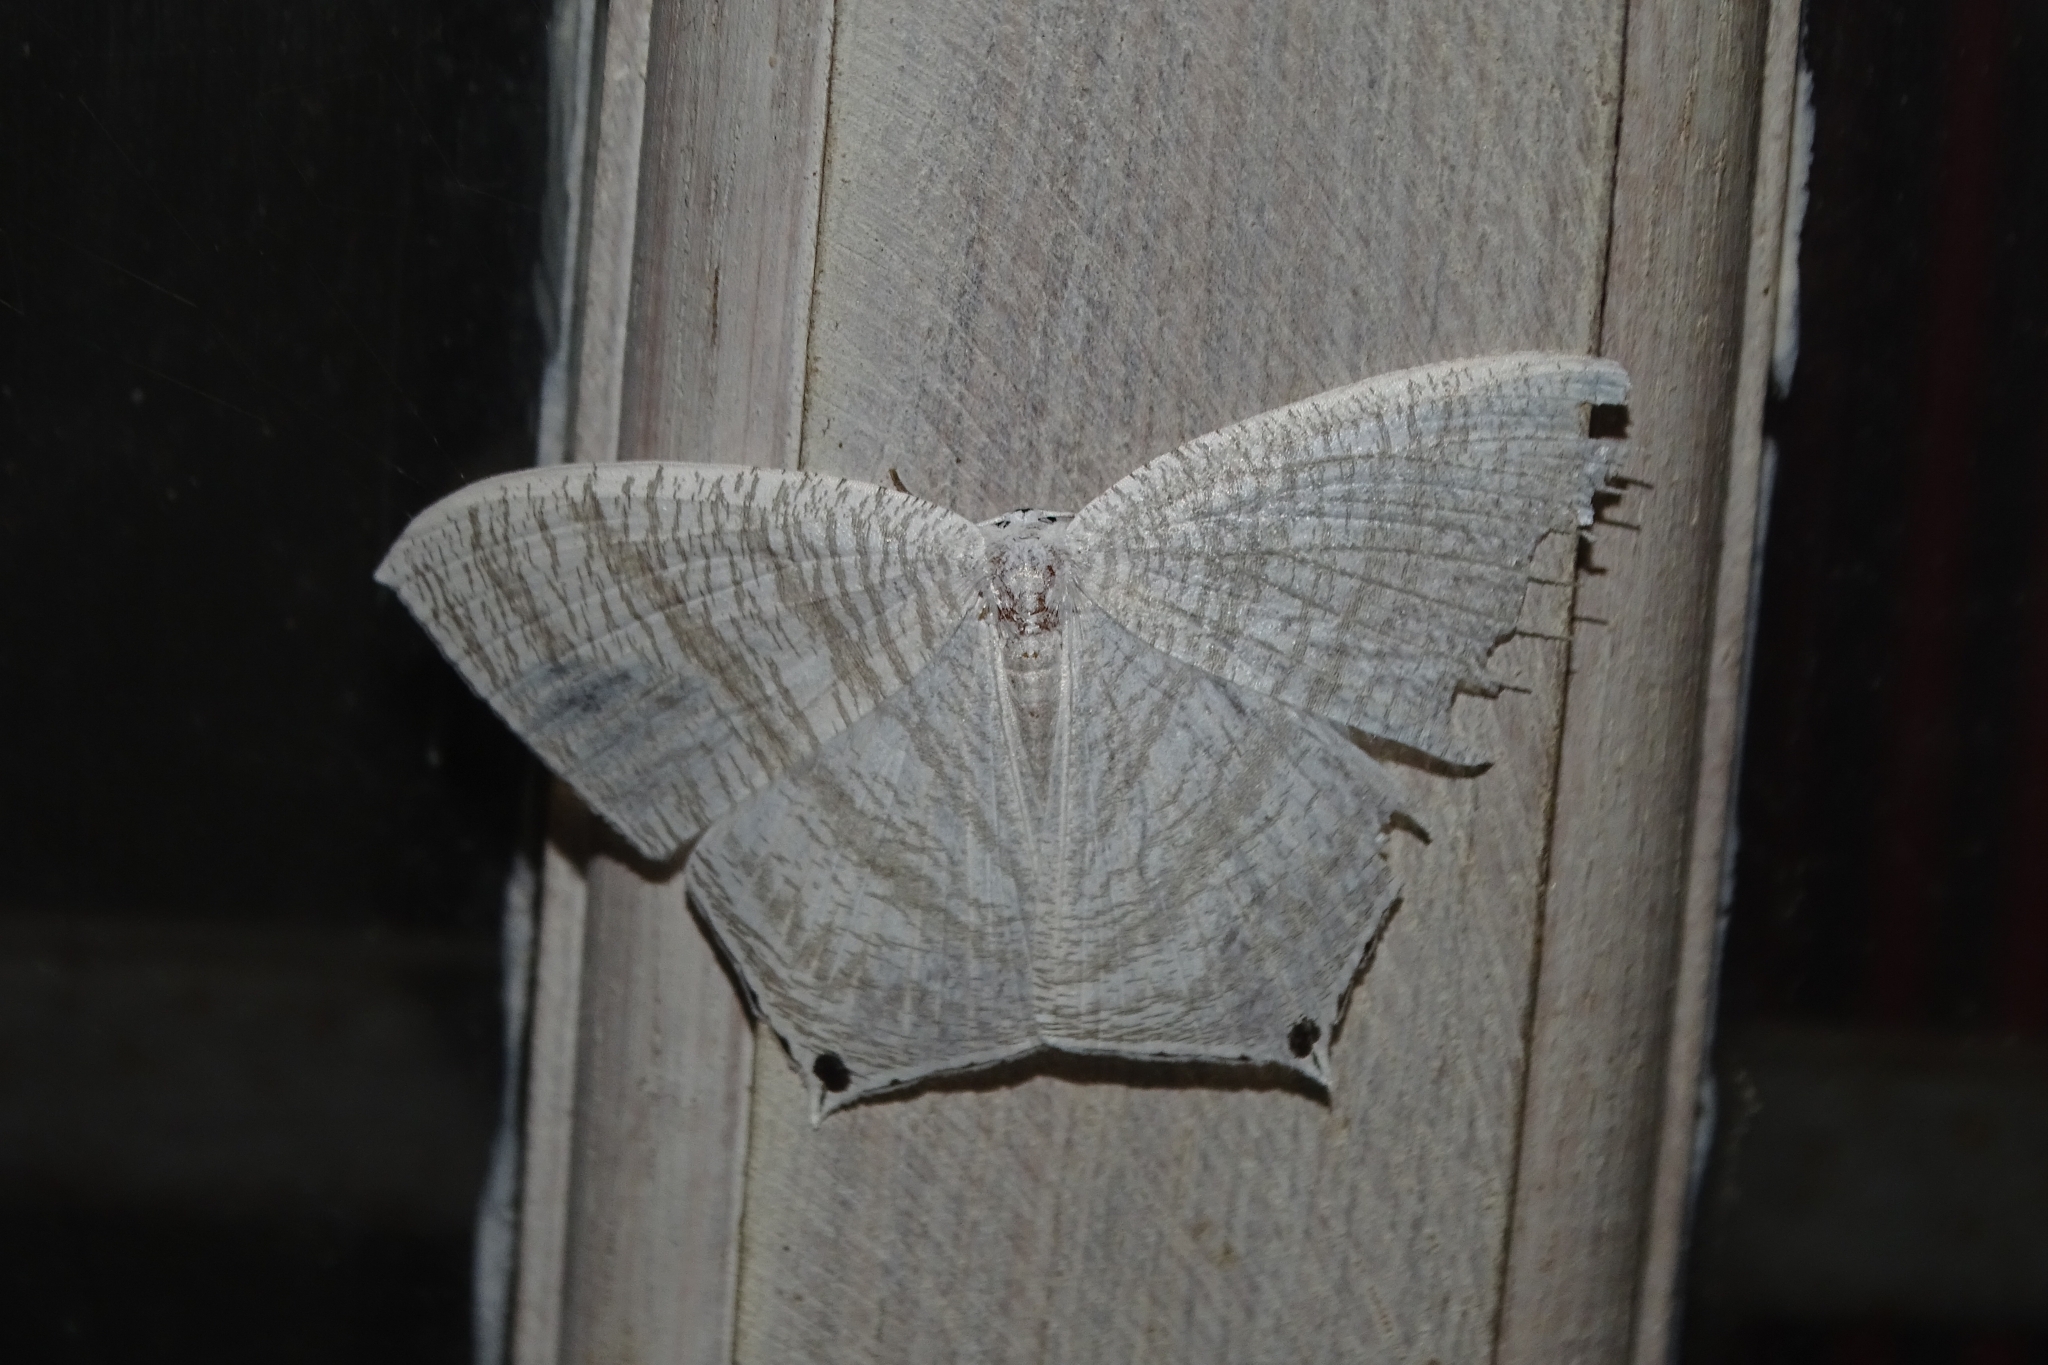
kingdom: Animalia
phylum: Arthropoda
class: Insecta
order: Lepidoptera
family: Uraniidae
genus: Micronia
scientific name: Micronia aculeata
